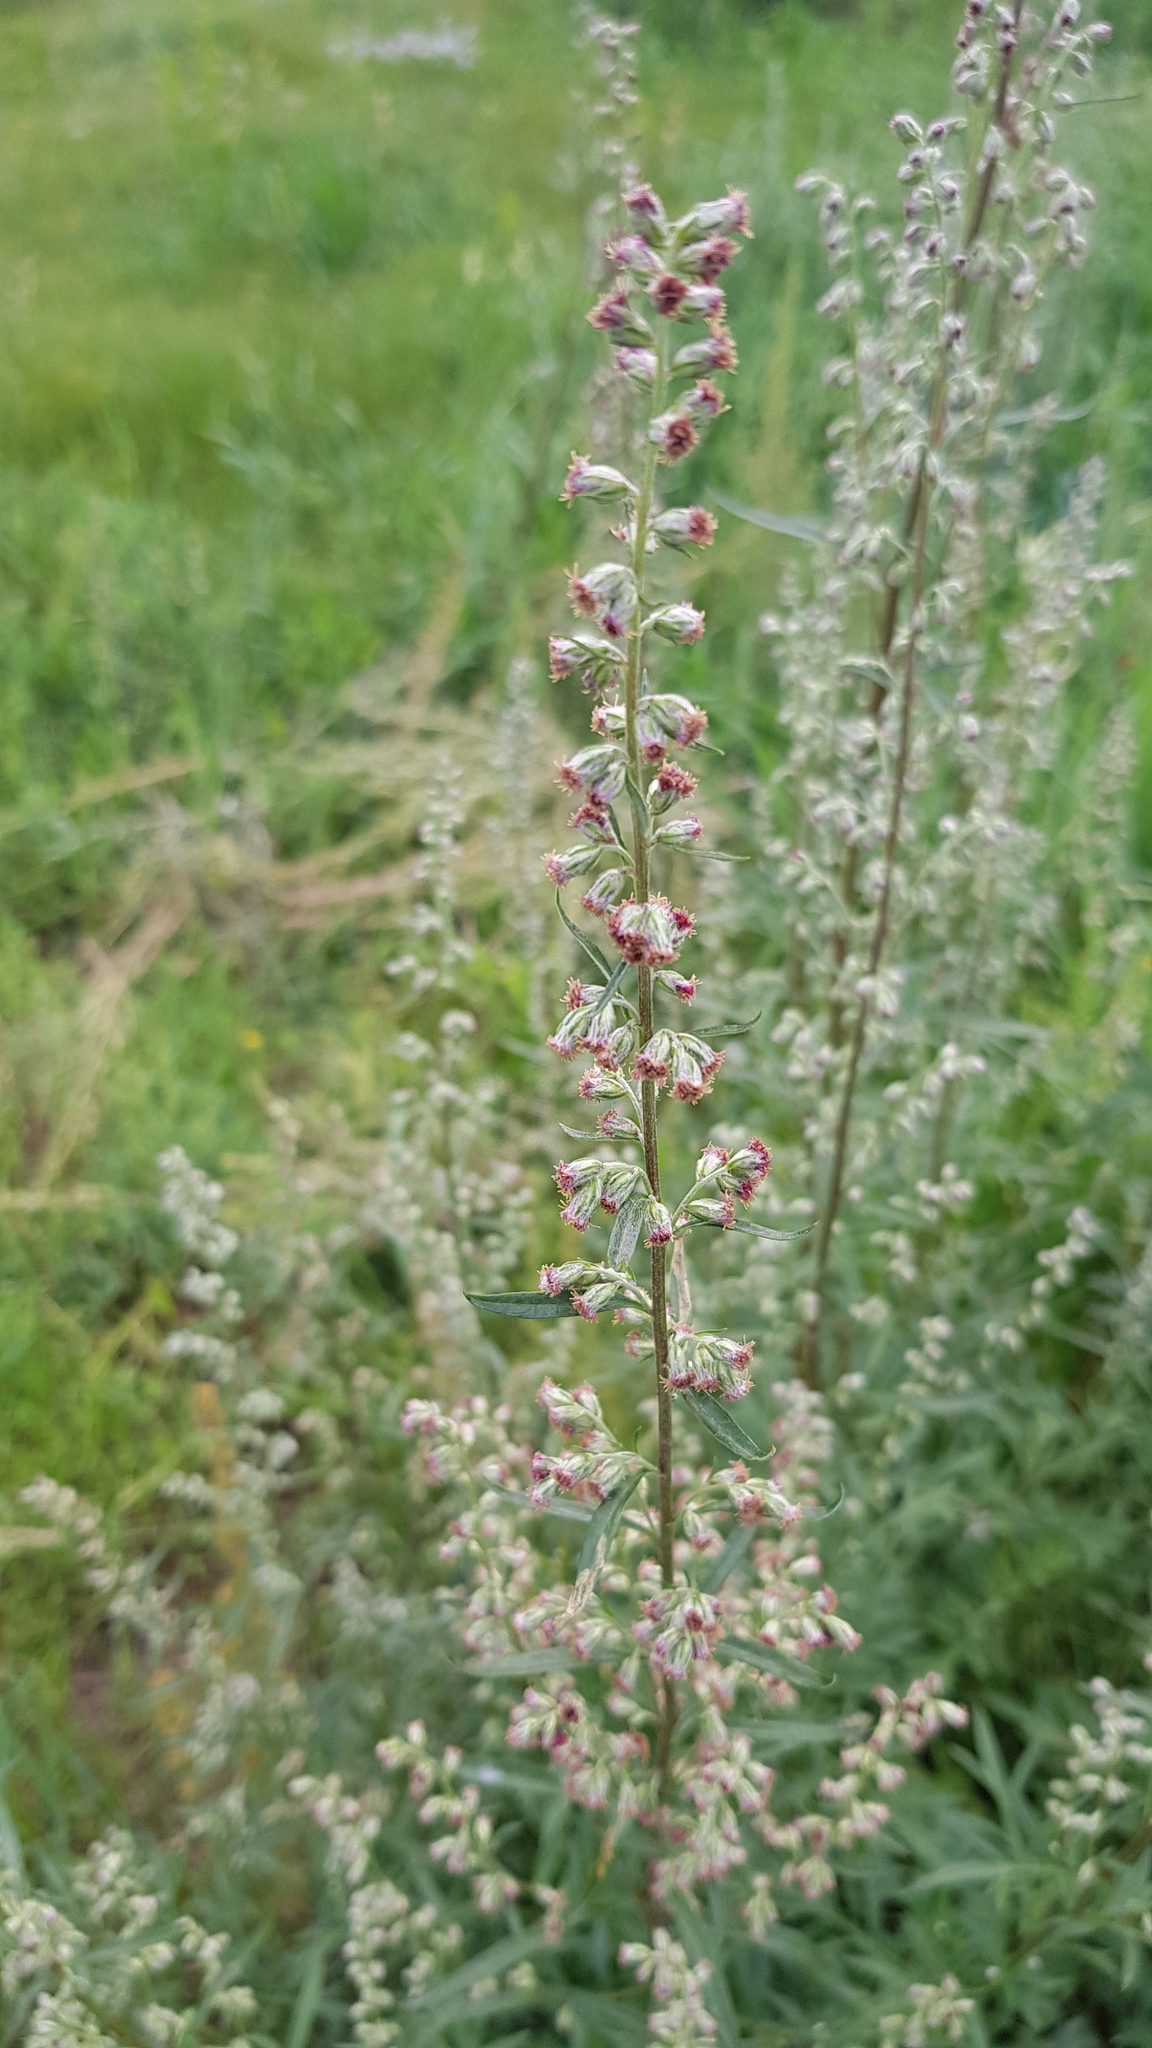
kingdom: Plantae
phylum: Tracheophyta
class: Magnoliopsida
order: Asterales
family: Asteraceae
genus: Artemisia
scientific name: Artemisia vulgaris
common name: Mugwort
